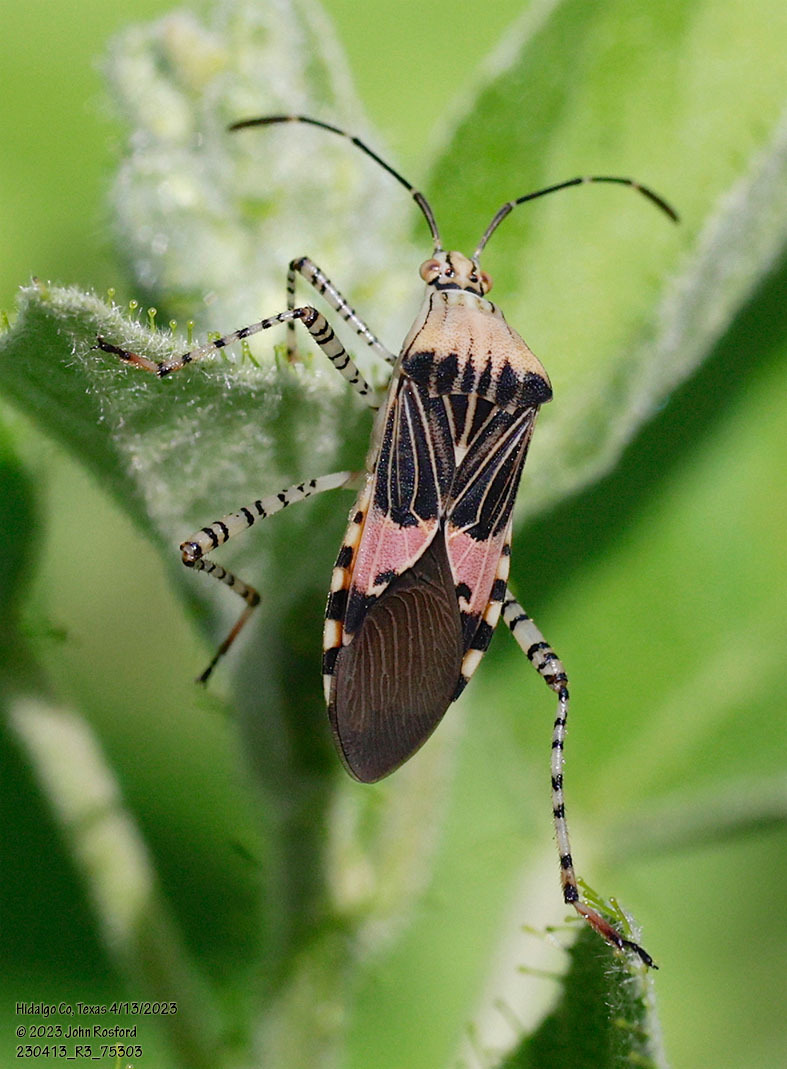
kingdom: Animalia
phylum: Arthropoda
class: Insecta
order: Hemiptera
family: Coreidae
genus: Hypselonotus
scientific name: Hypselonotus punctiventris
